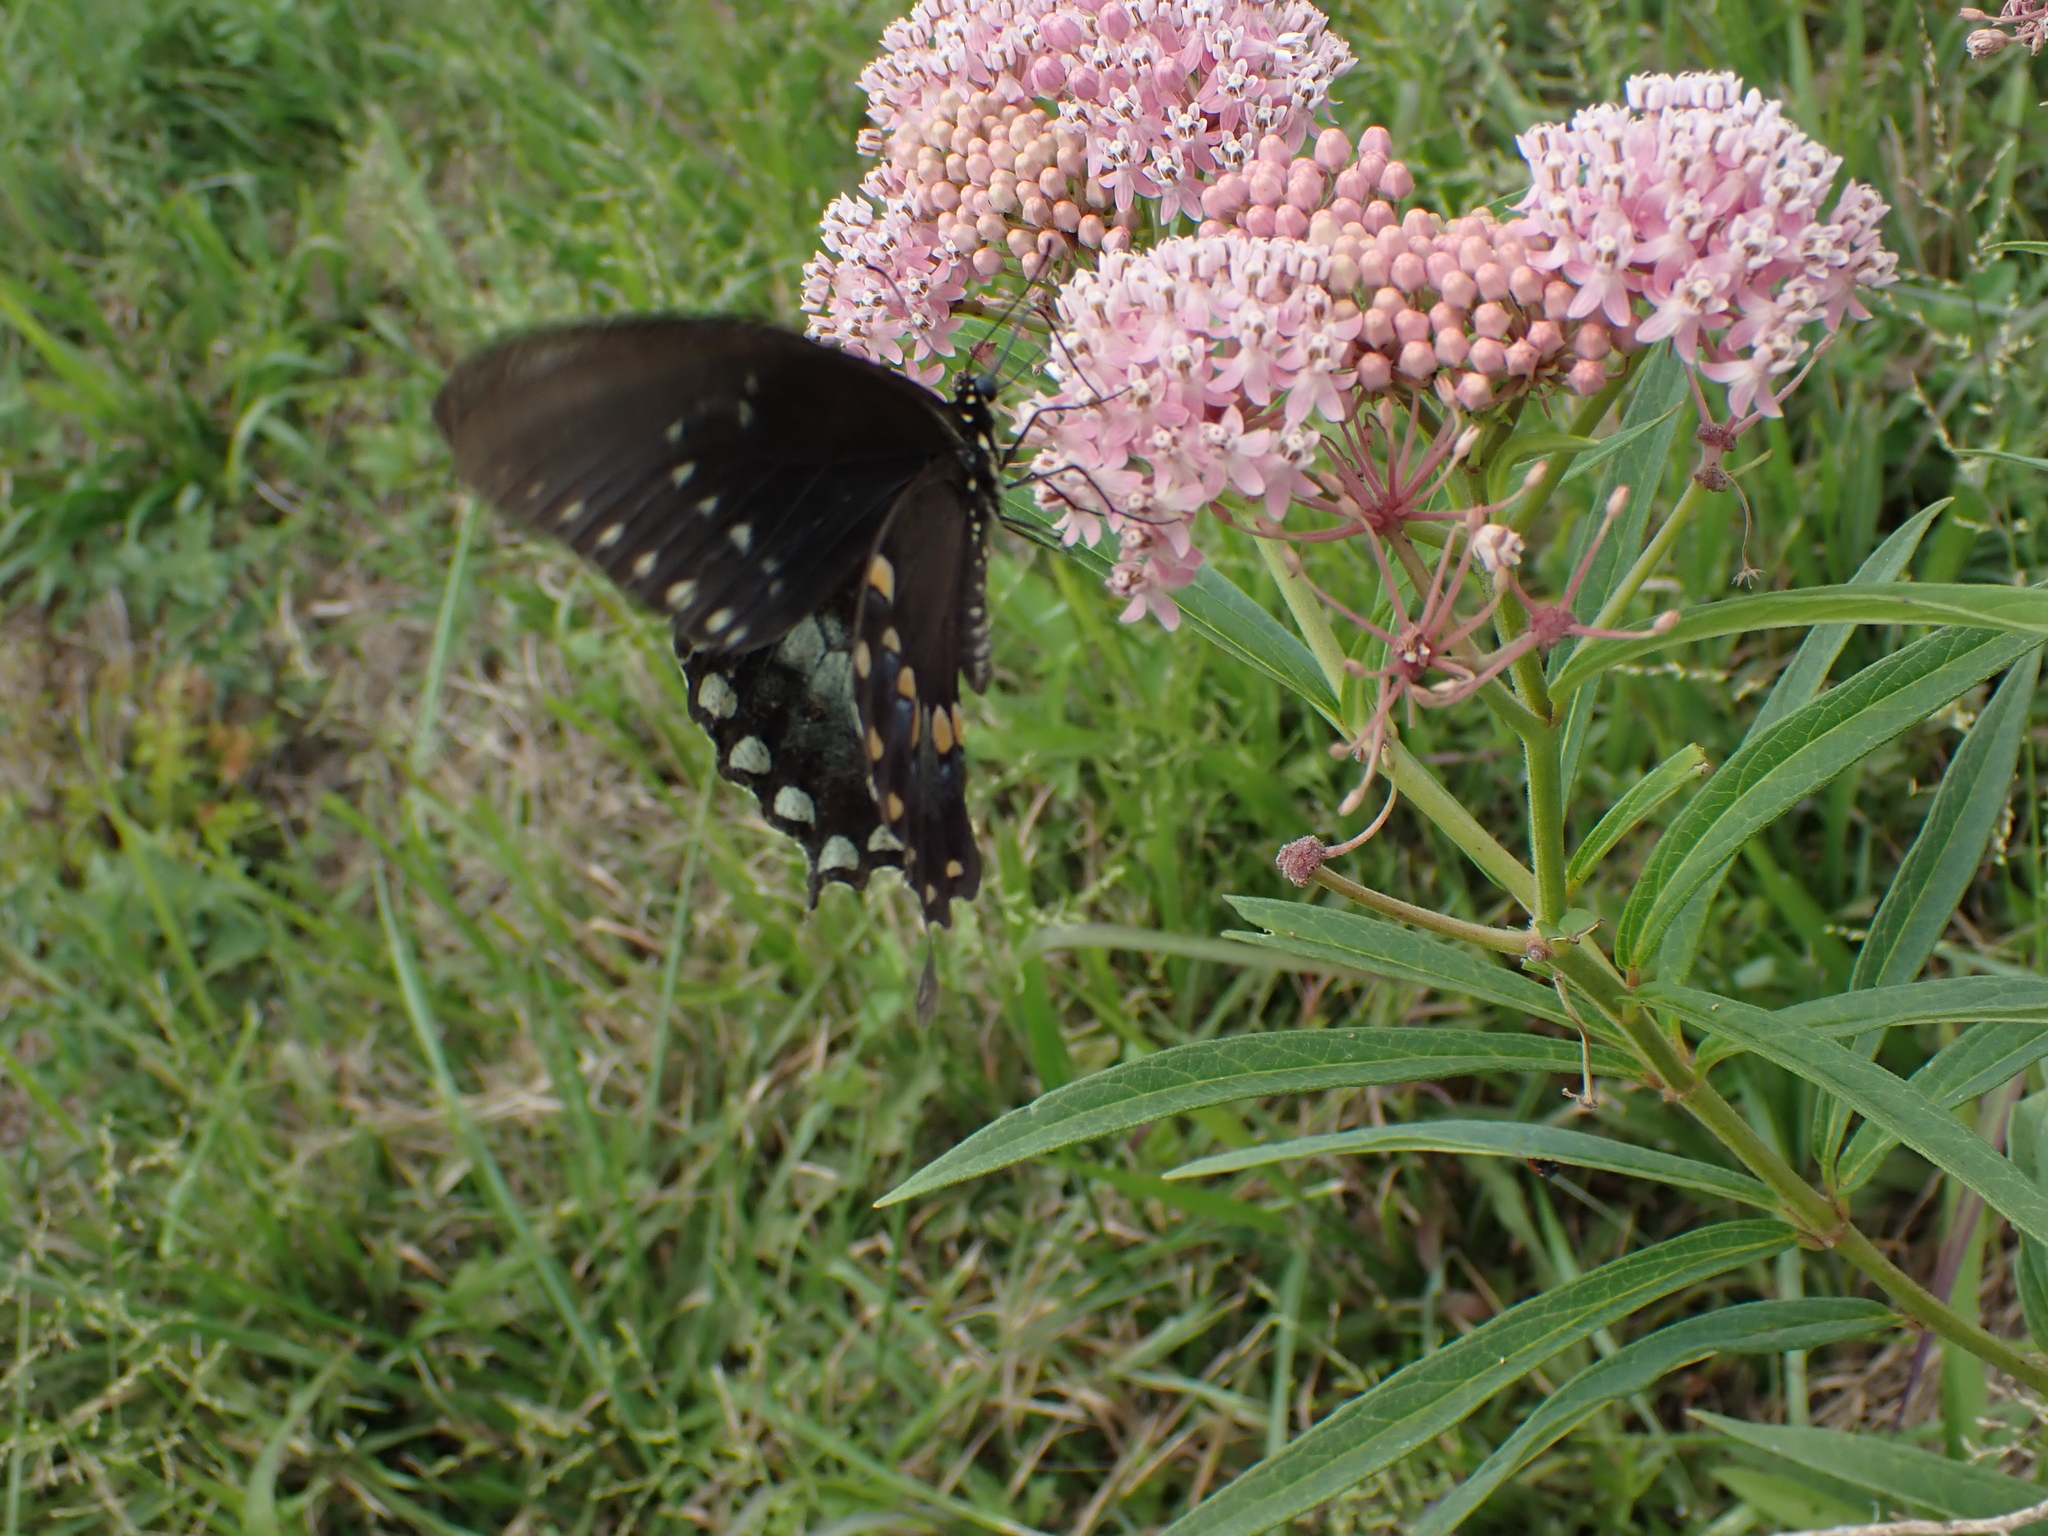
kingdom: Animalia
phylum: Arthropoda
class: Insecta
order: Lepidoptera
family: Papilionidae
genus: Papilio
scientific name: Papilio troilus
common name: Spicebush swallowtail
